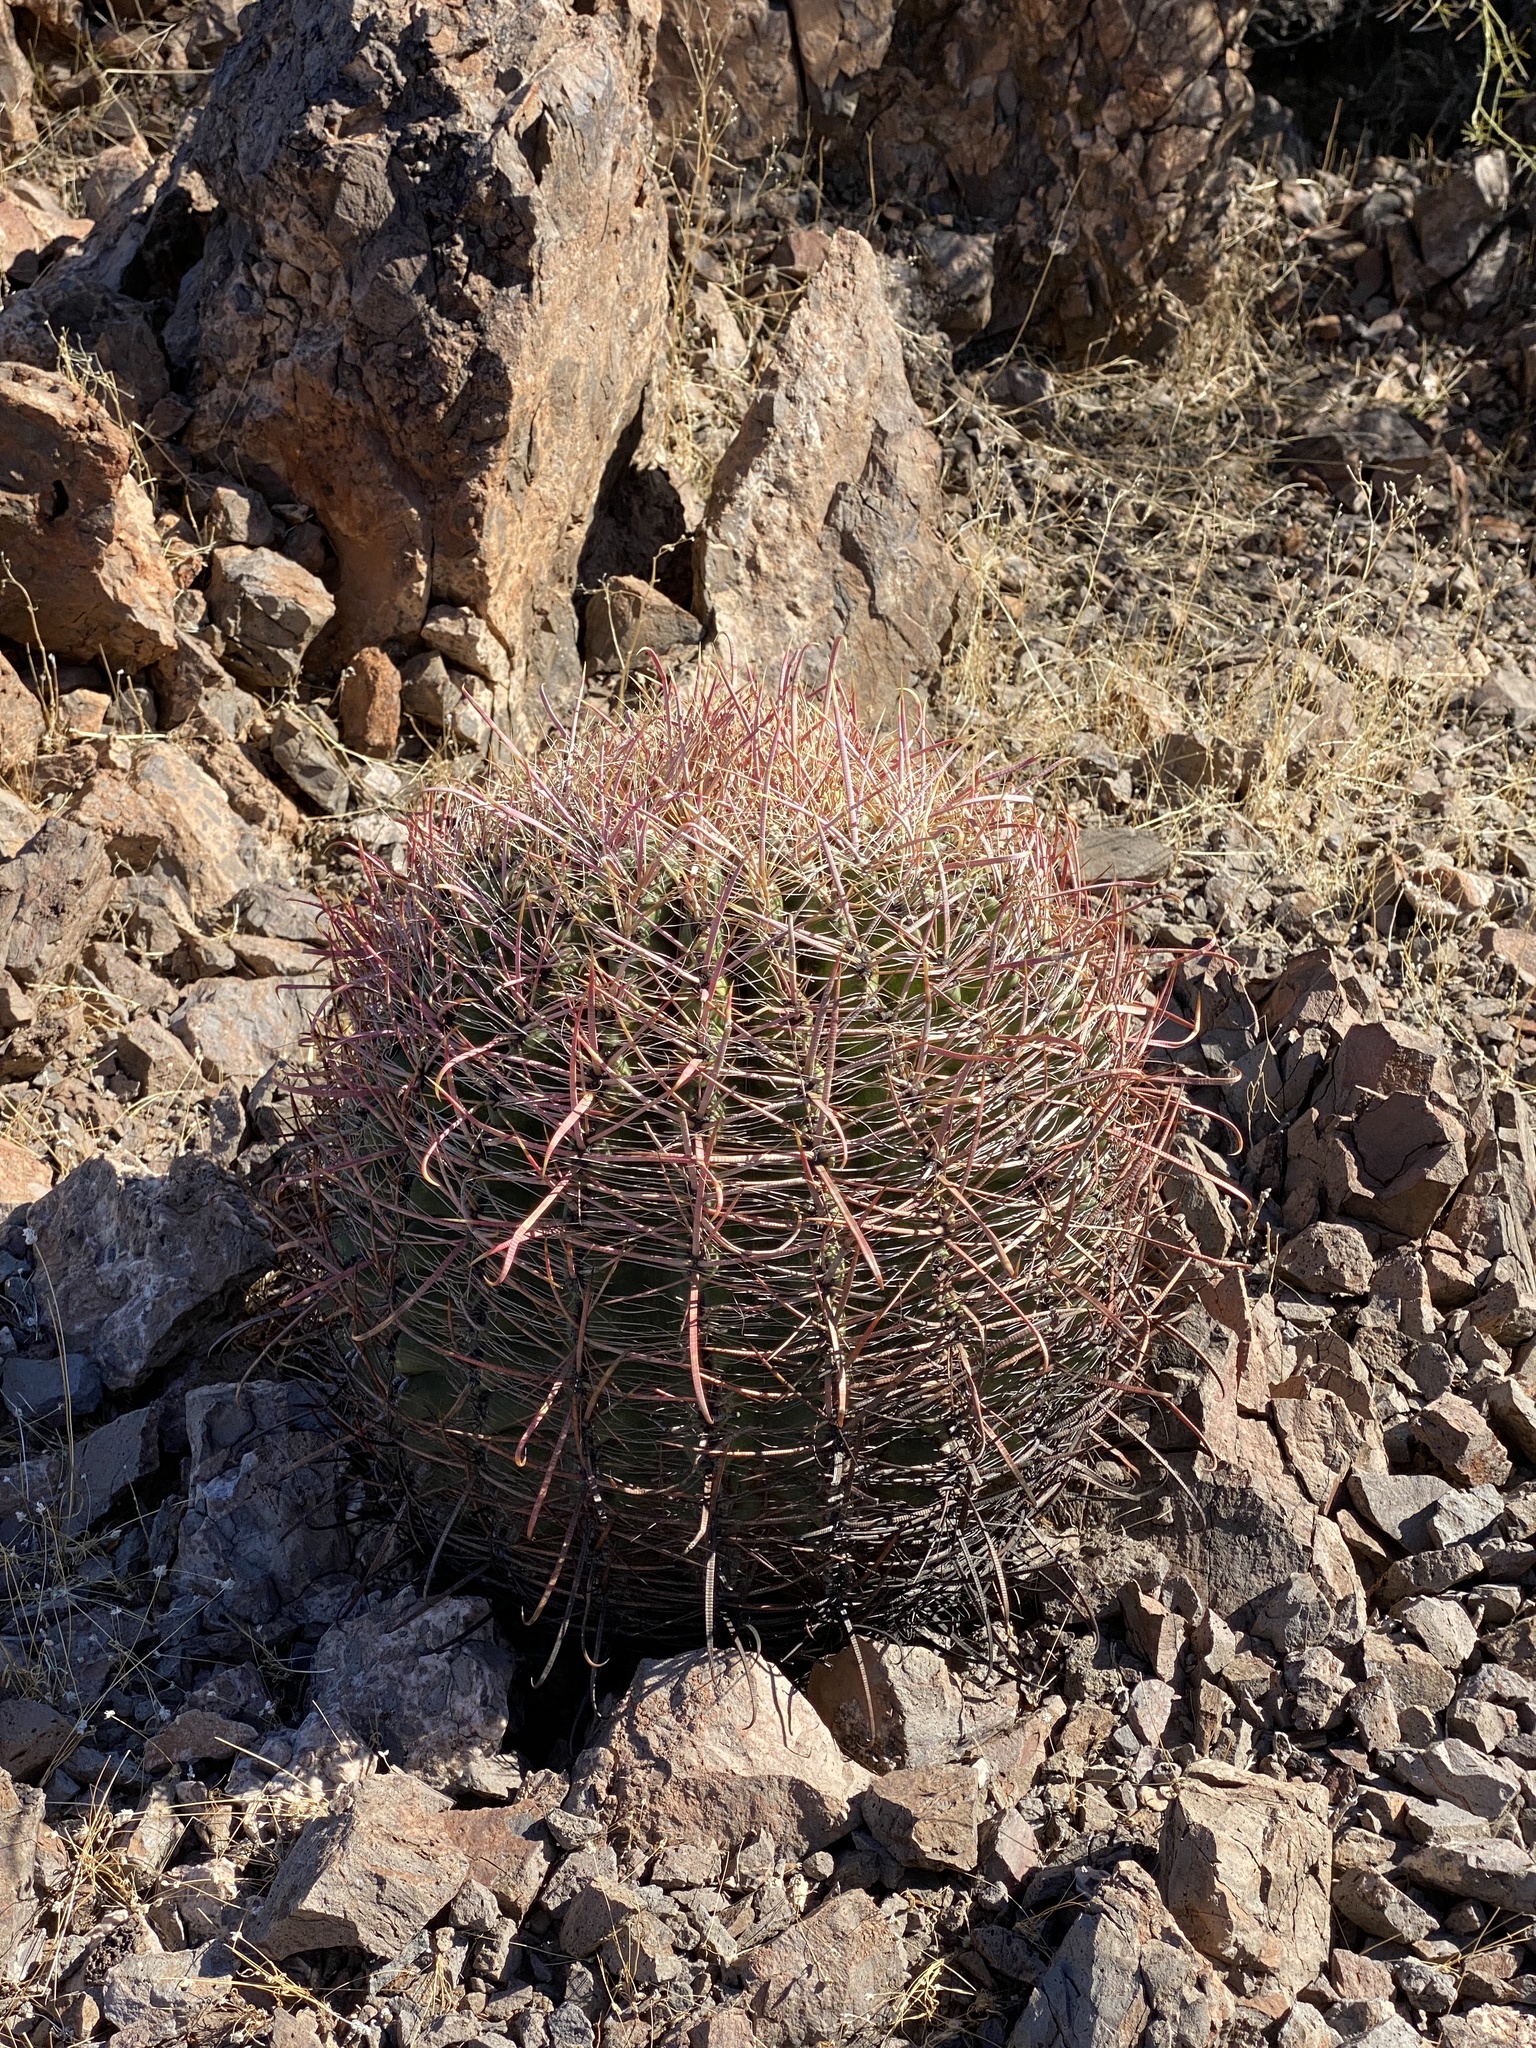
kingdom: Plantae
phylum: Tracheophyta
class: Magnoliopsida
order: Caryophyllales
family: Cactaceae
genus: Ferocactus
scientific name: Ferocactus cylindraceus
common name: California barrel cactus
